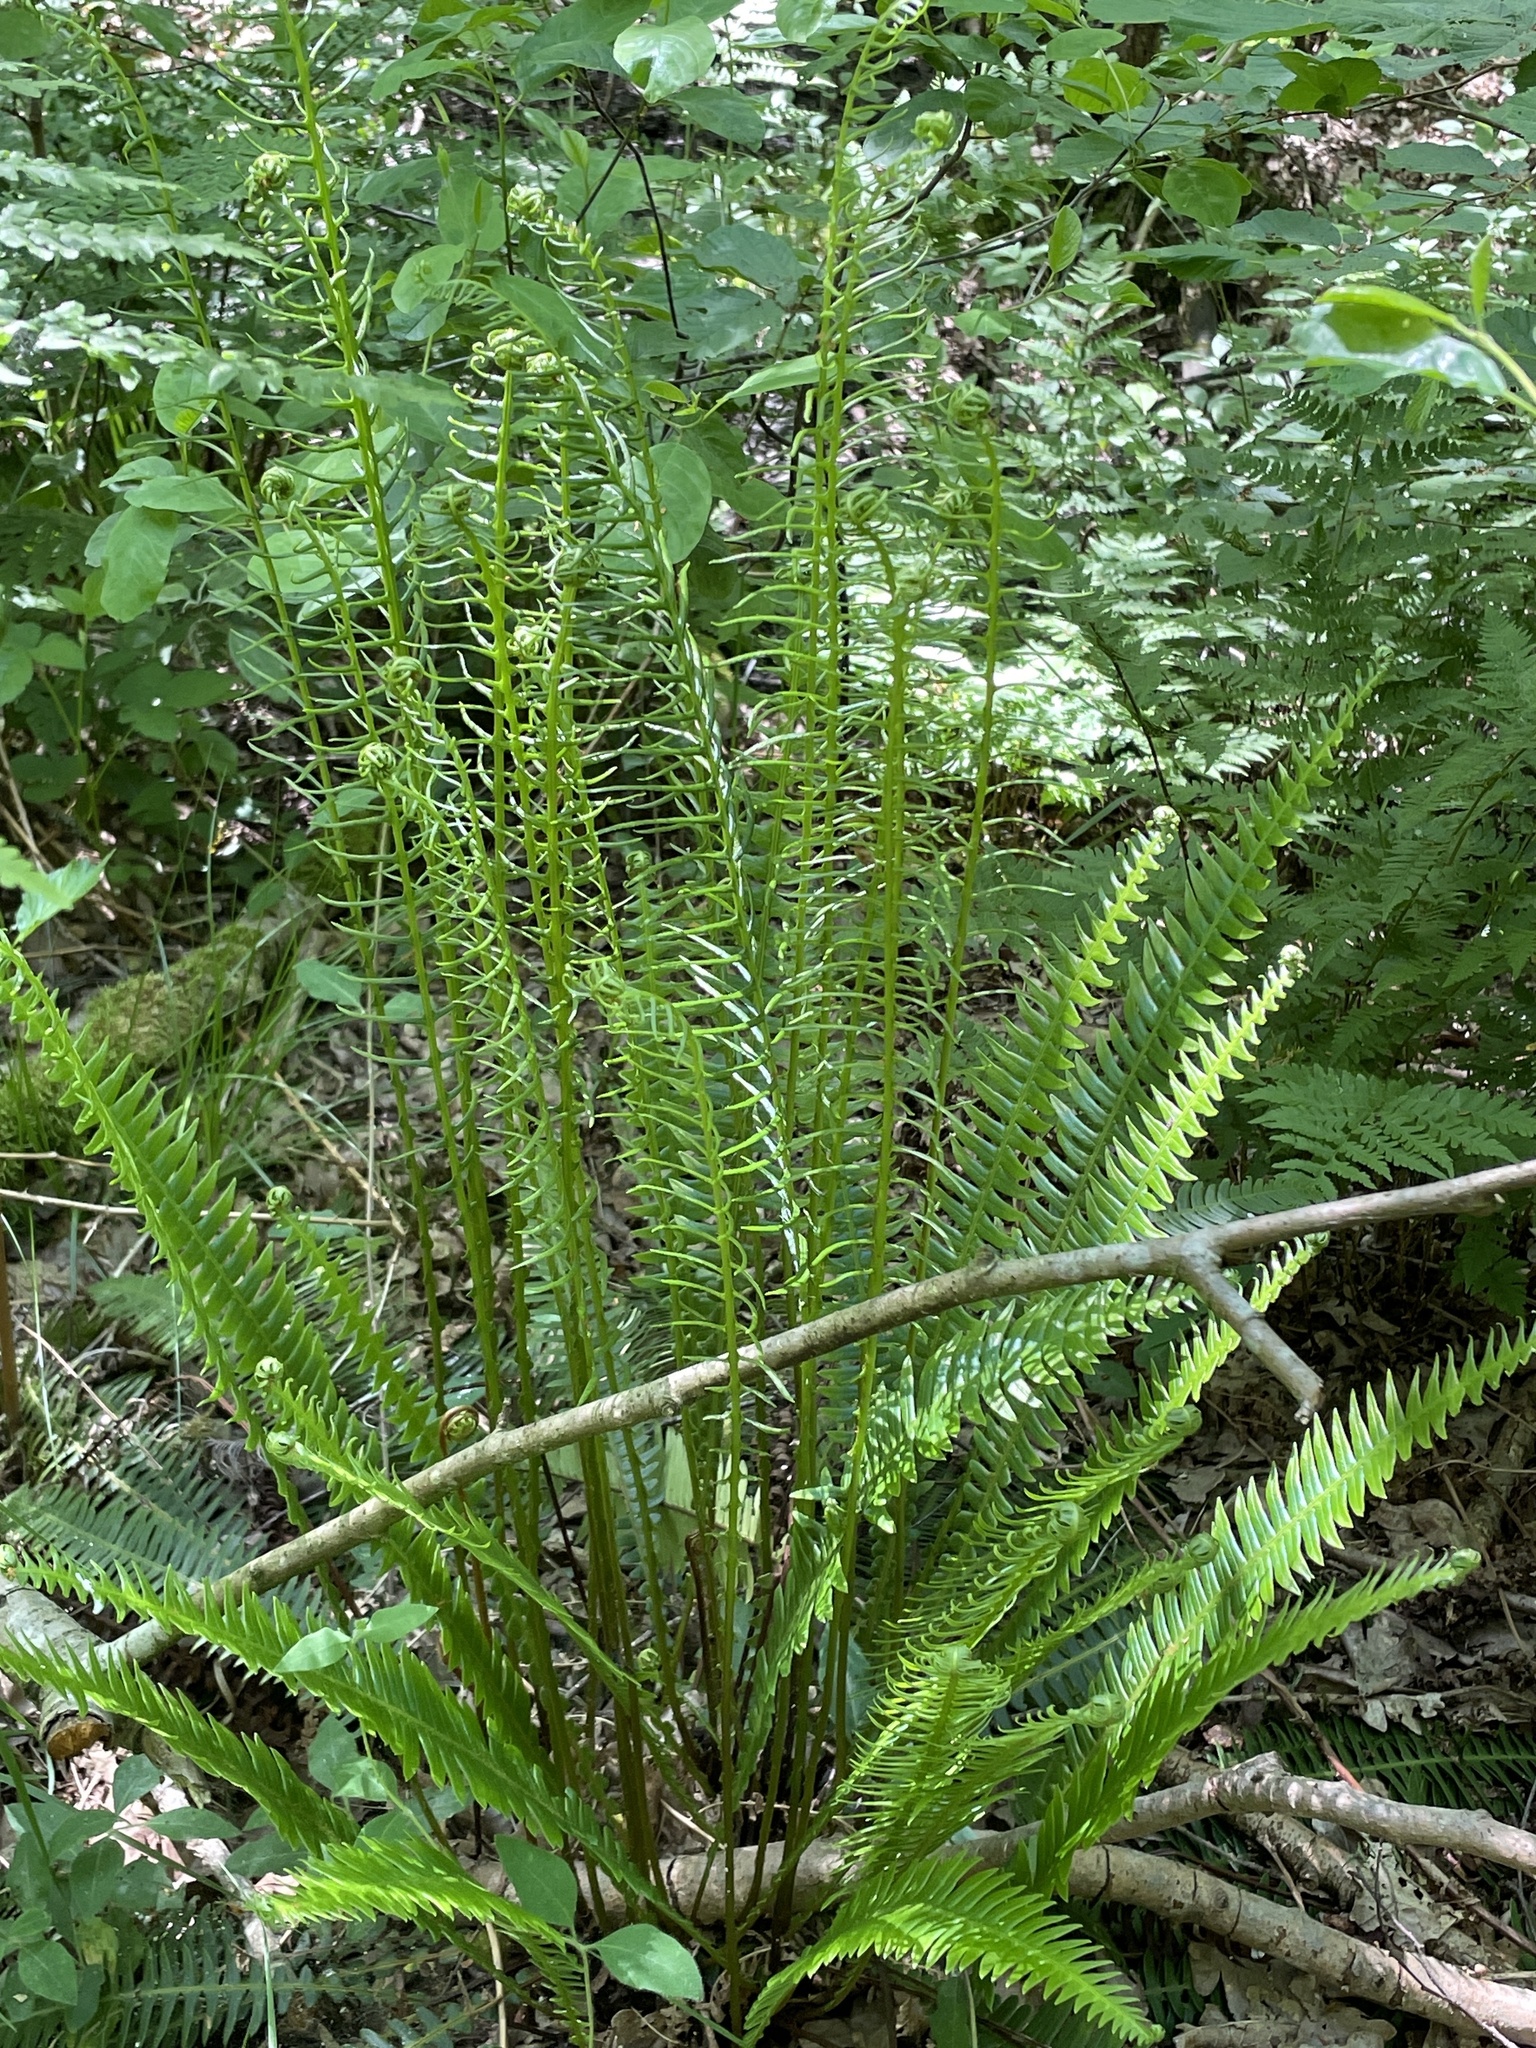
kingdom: Plantae
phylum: Tracheophyta
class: Polypodiopsida
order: Polypodiales
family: Blechnaceae
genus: Struthiopteris
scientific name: Struthiopteris spicant
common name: Deer fern
